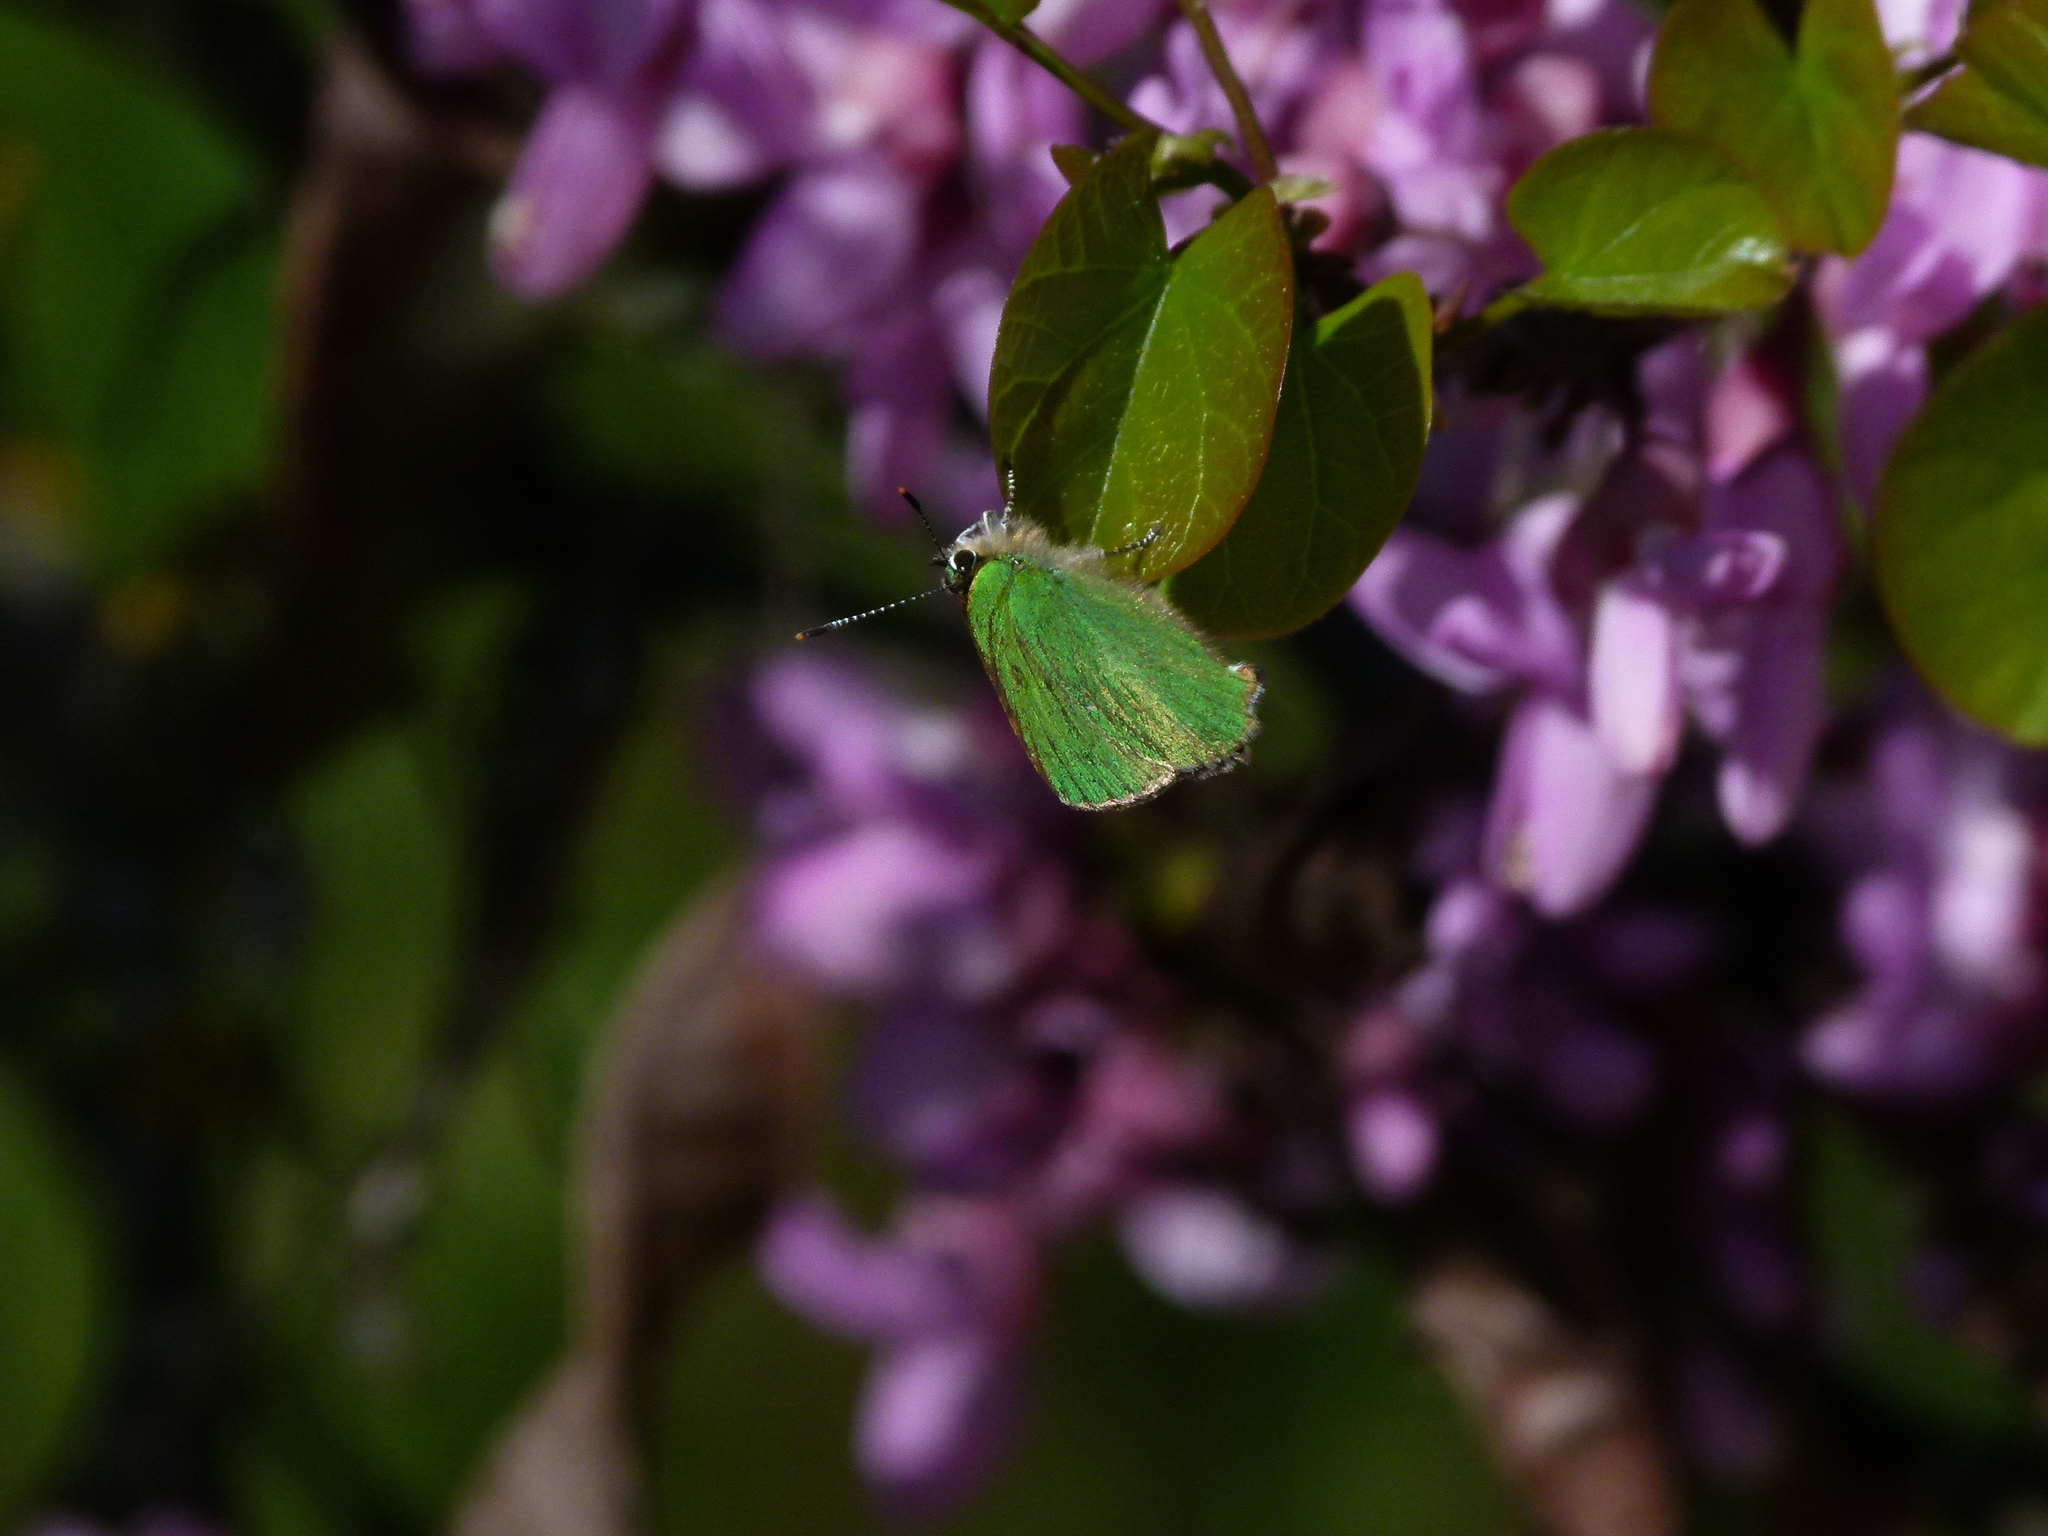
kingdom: Animalia
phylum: Arthropoda
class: Insecta
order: Lepidoptera
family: Lycaenidae
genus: Callophrys
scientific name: Callophrys rubi
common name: Green hairstreak
